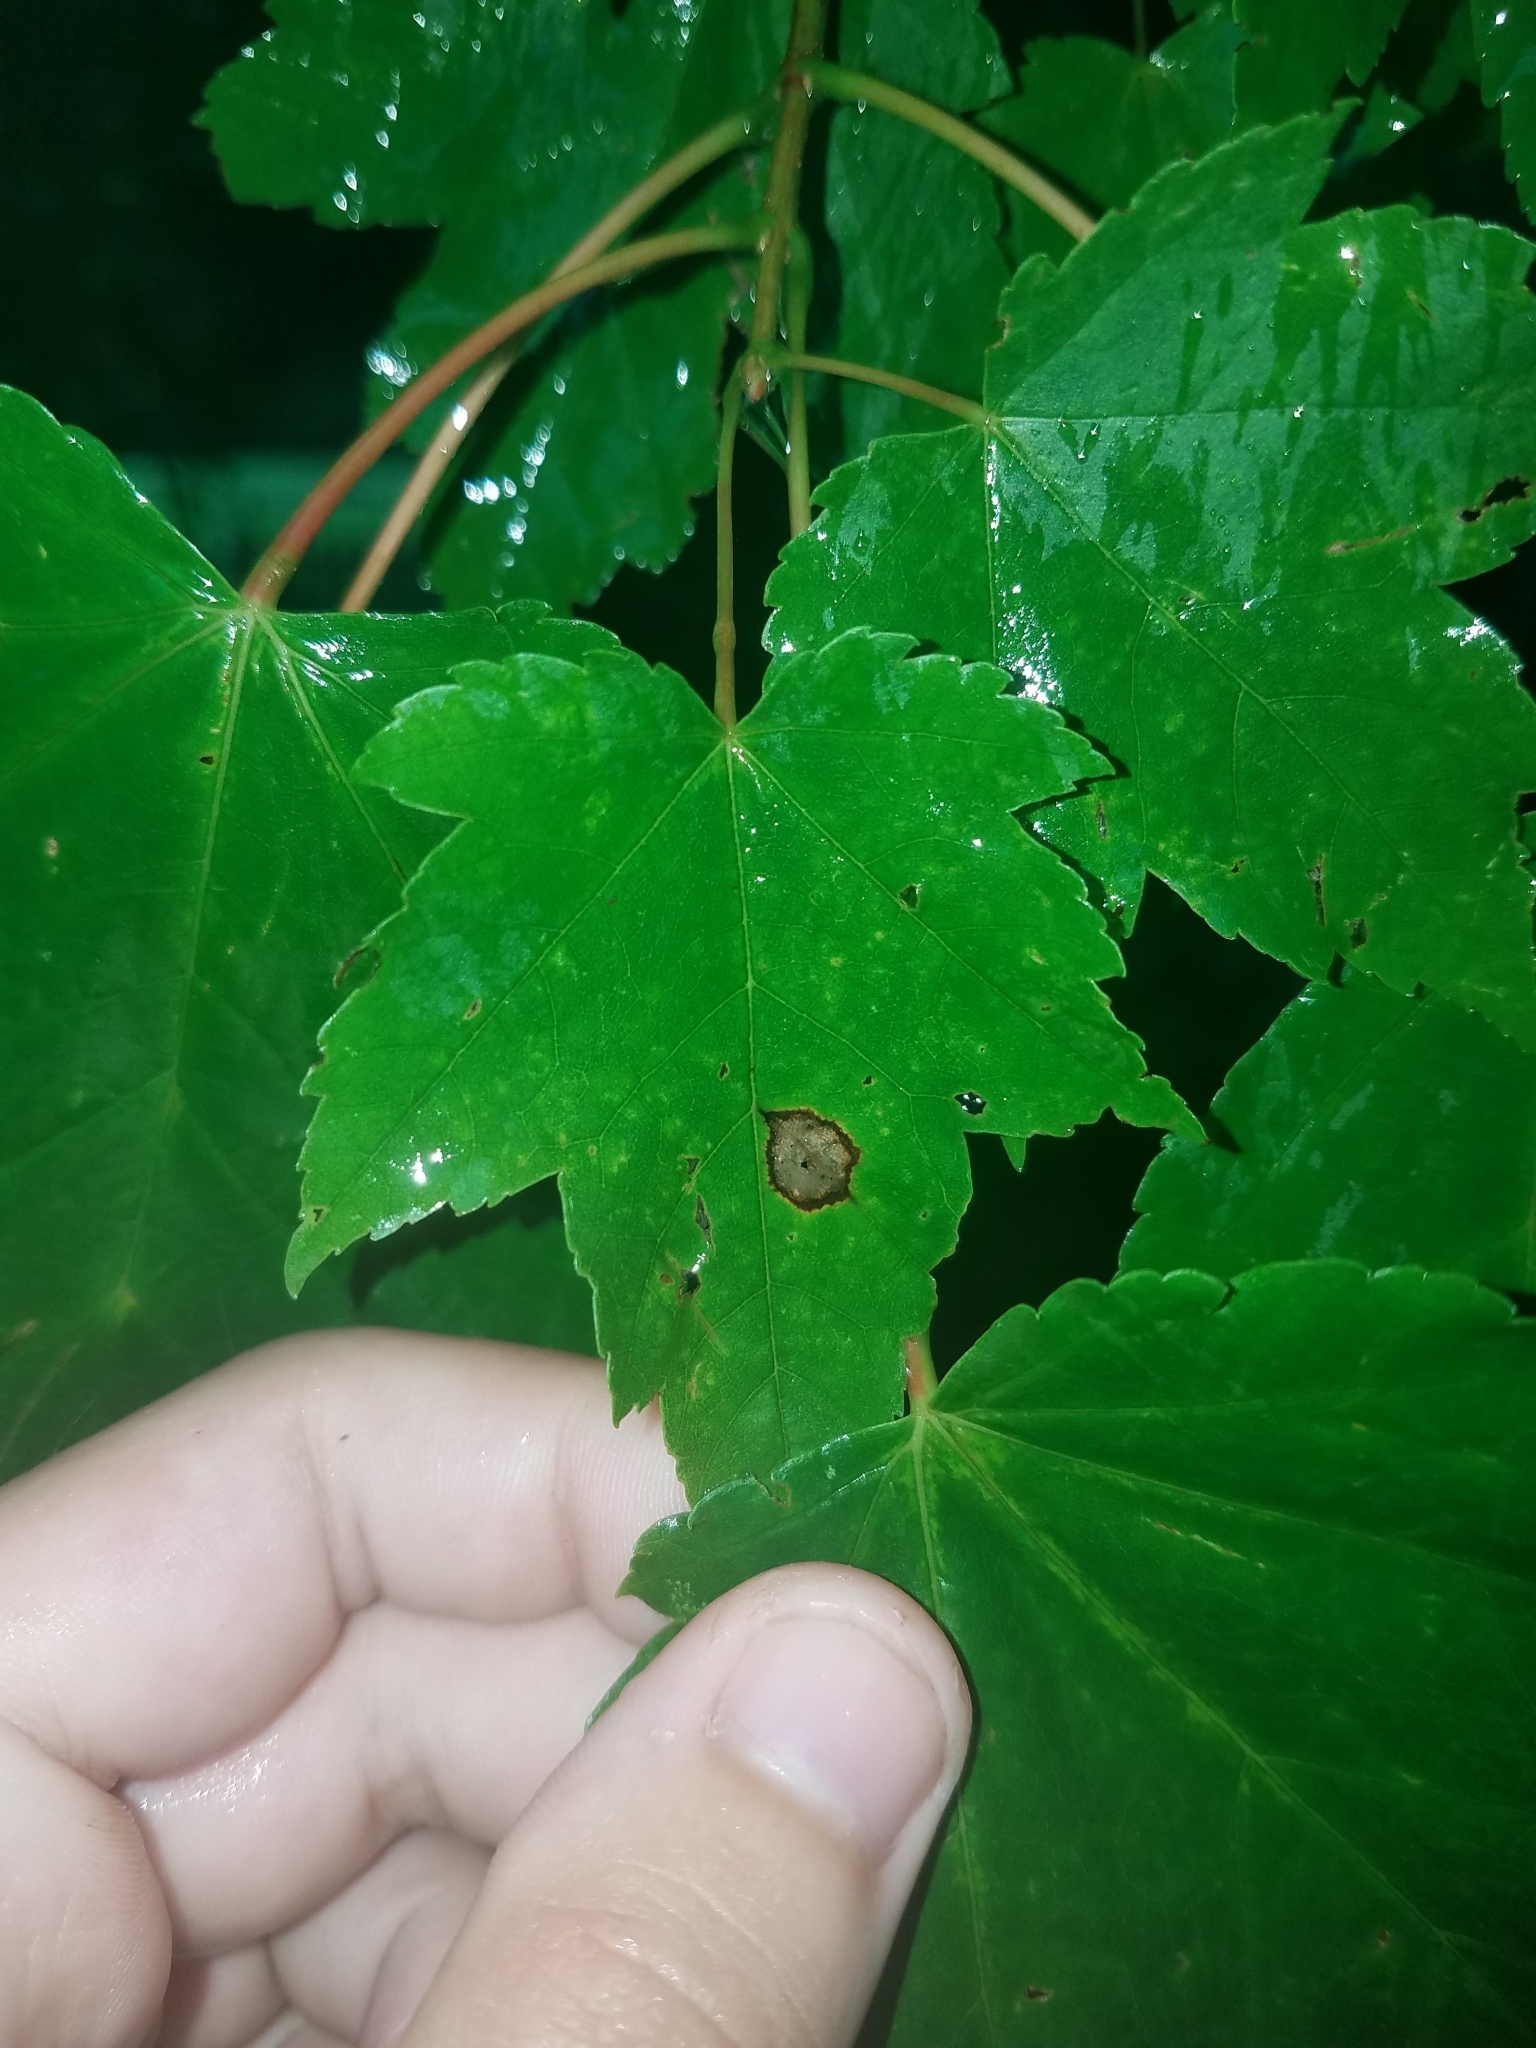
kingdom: Animalia
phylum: Arthropoda
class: Insecta
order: Diptera
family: Cecidomyiidae
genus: Acericecis
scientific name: Acericecis ocellaris
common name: Ocellate gall midge
